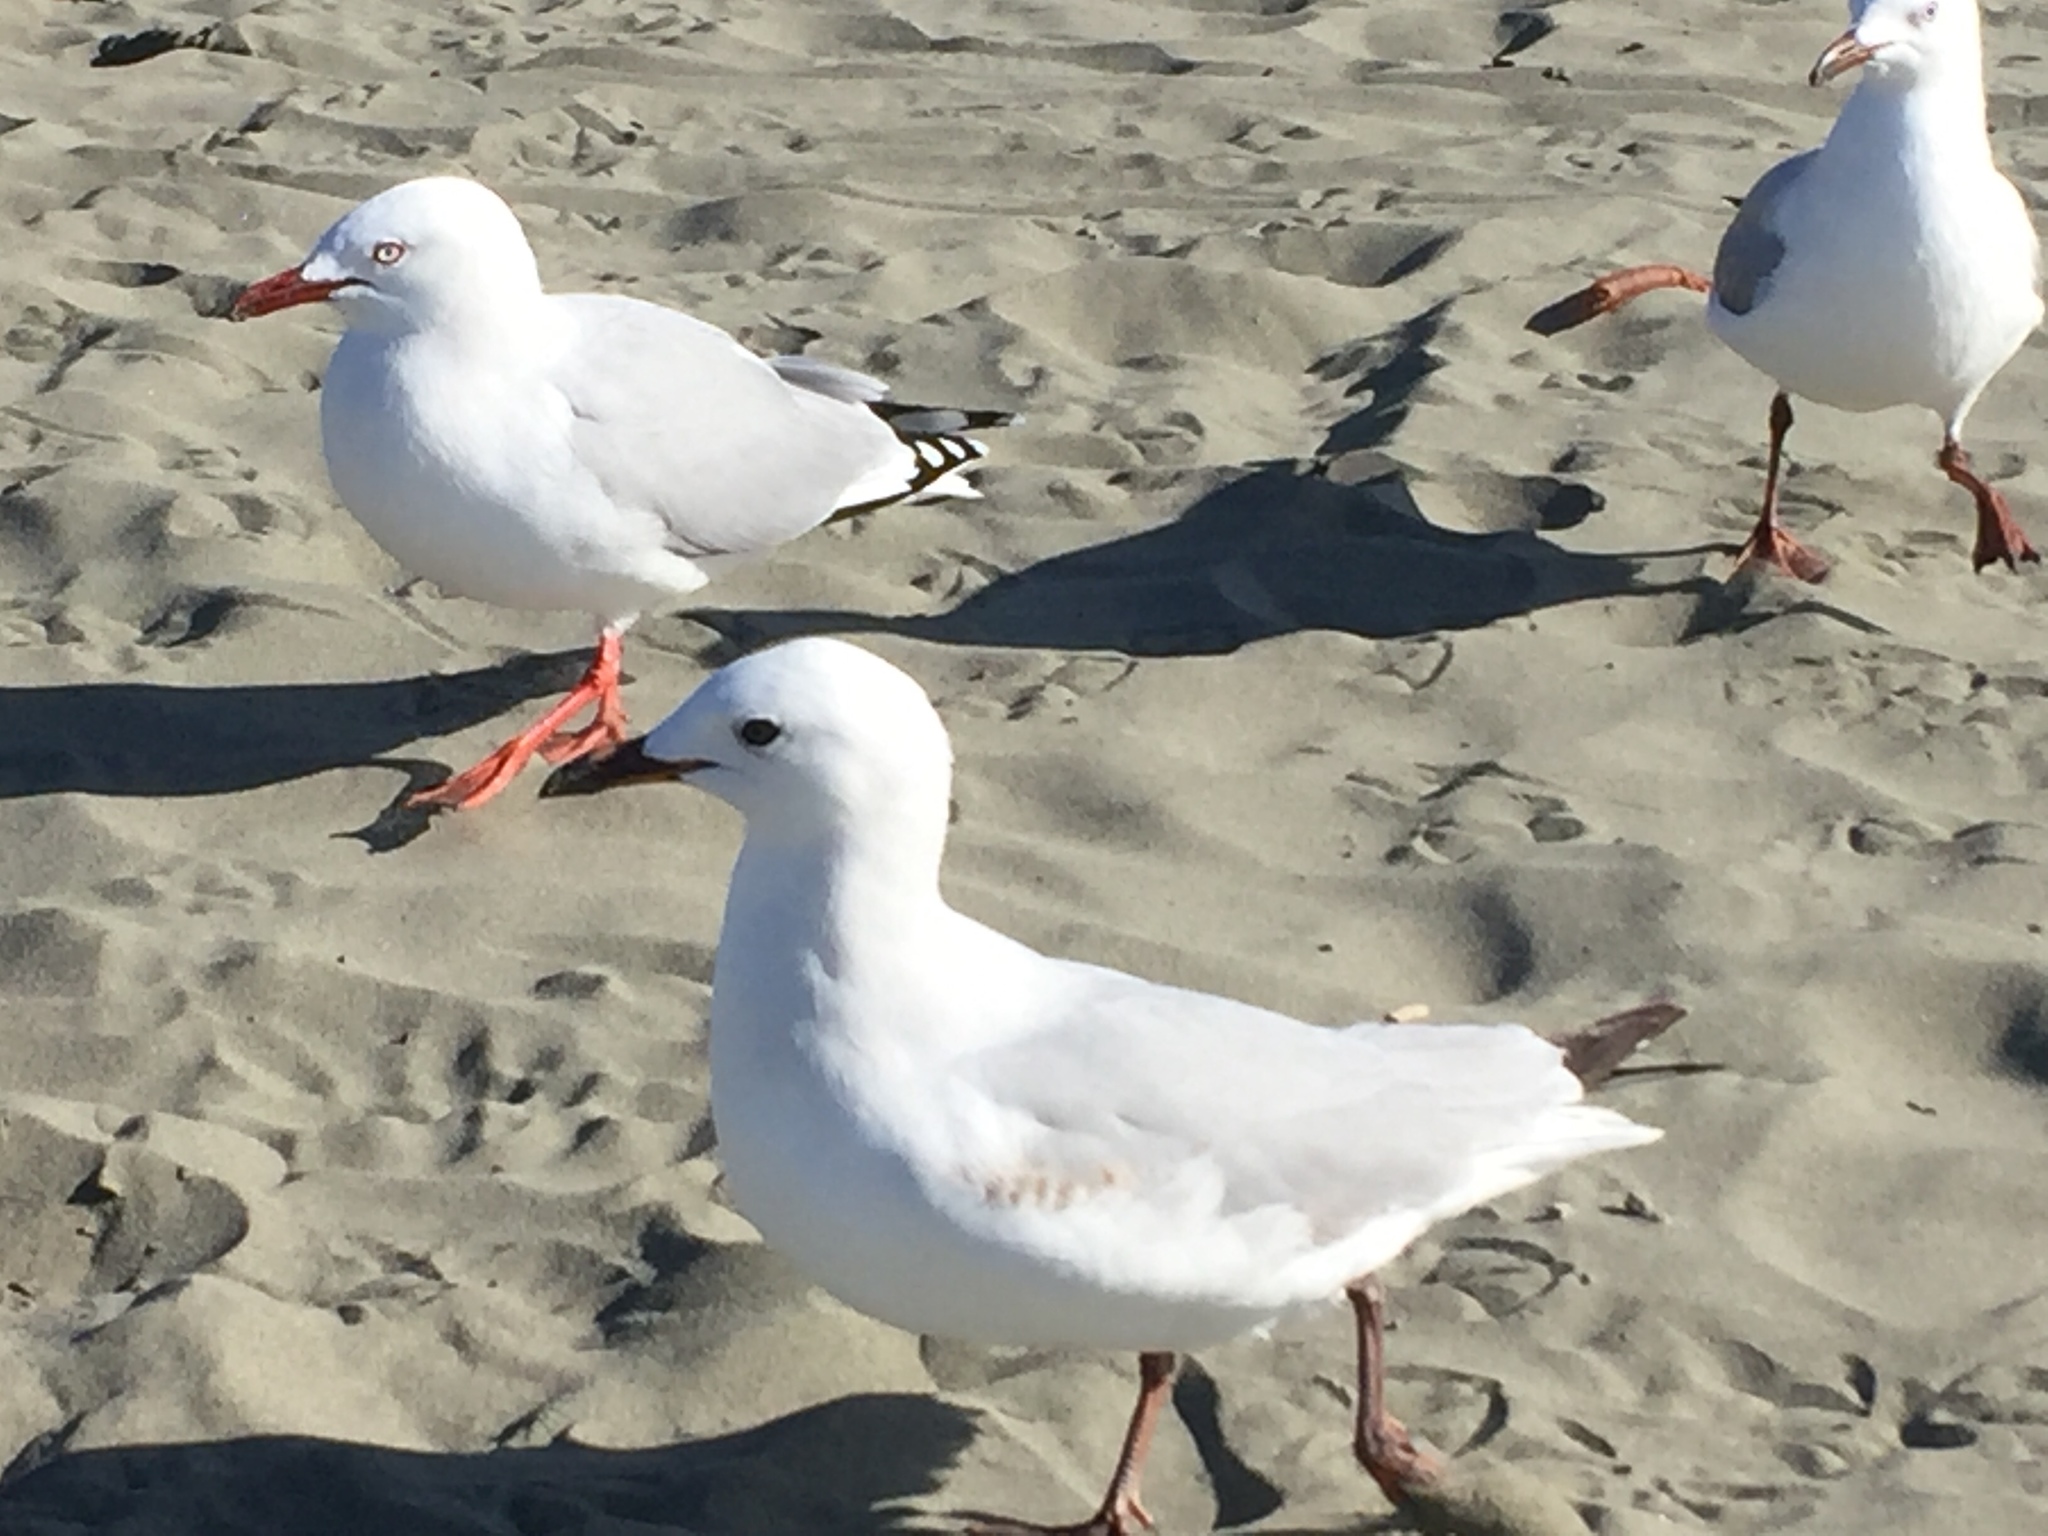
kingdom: Animalia
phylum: Chordata
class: Aves
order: Charadriiformes
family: Laridae
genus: Chroicocephalus
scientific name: Chroicocephalus novaehollandiae
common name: Silver gull
